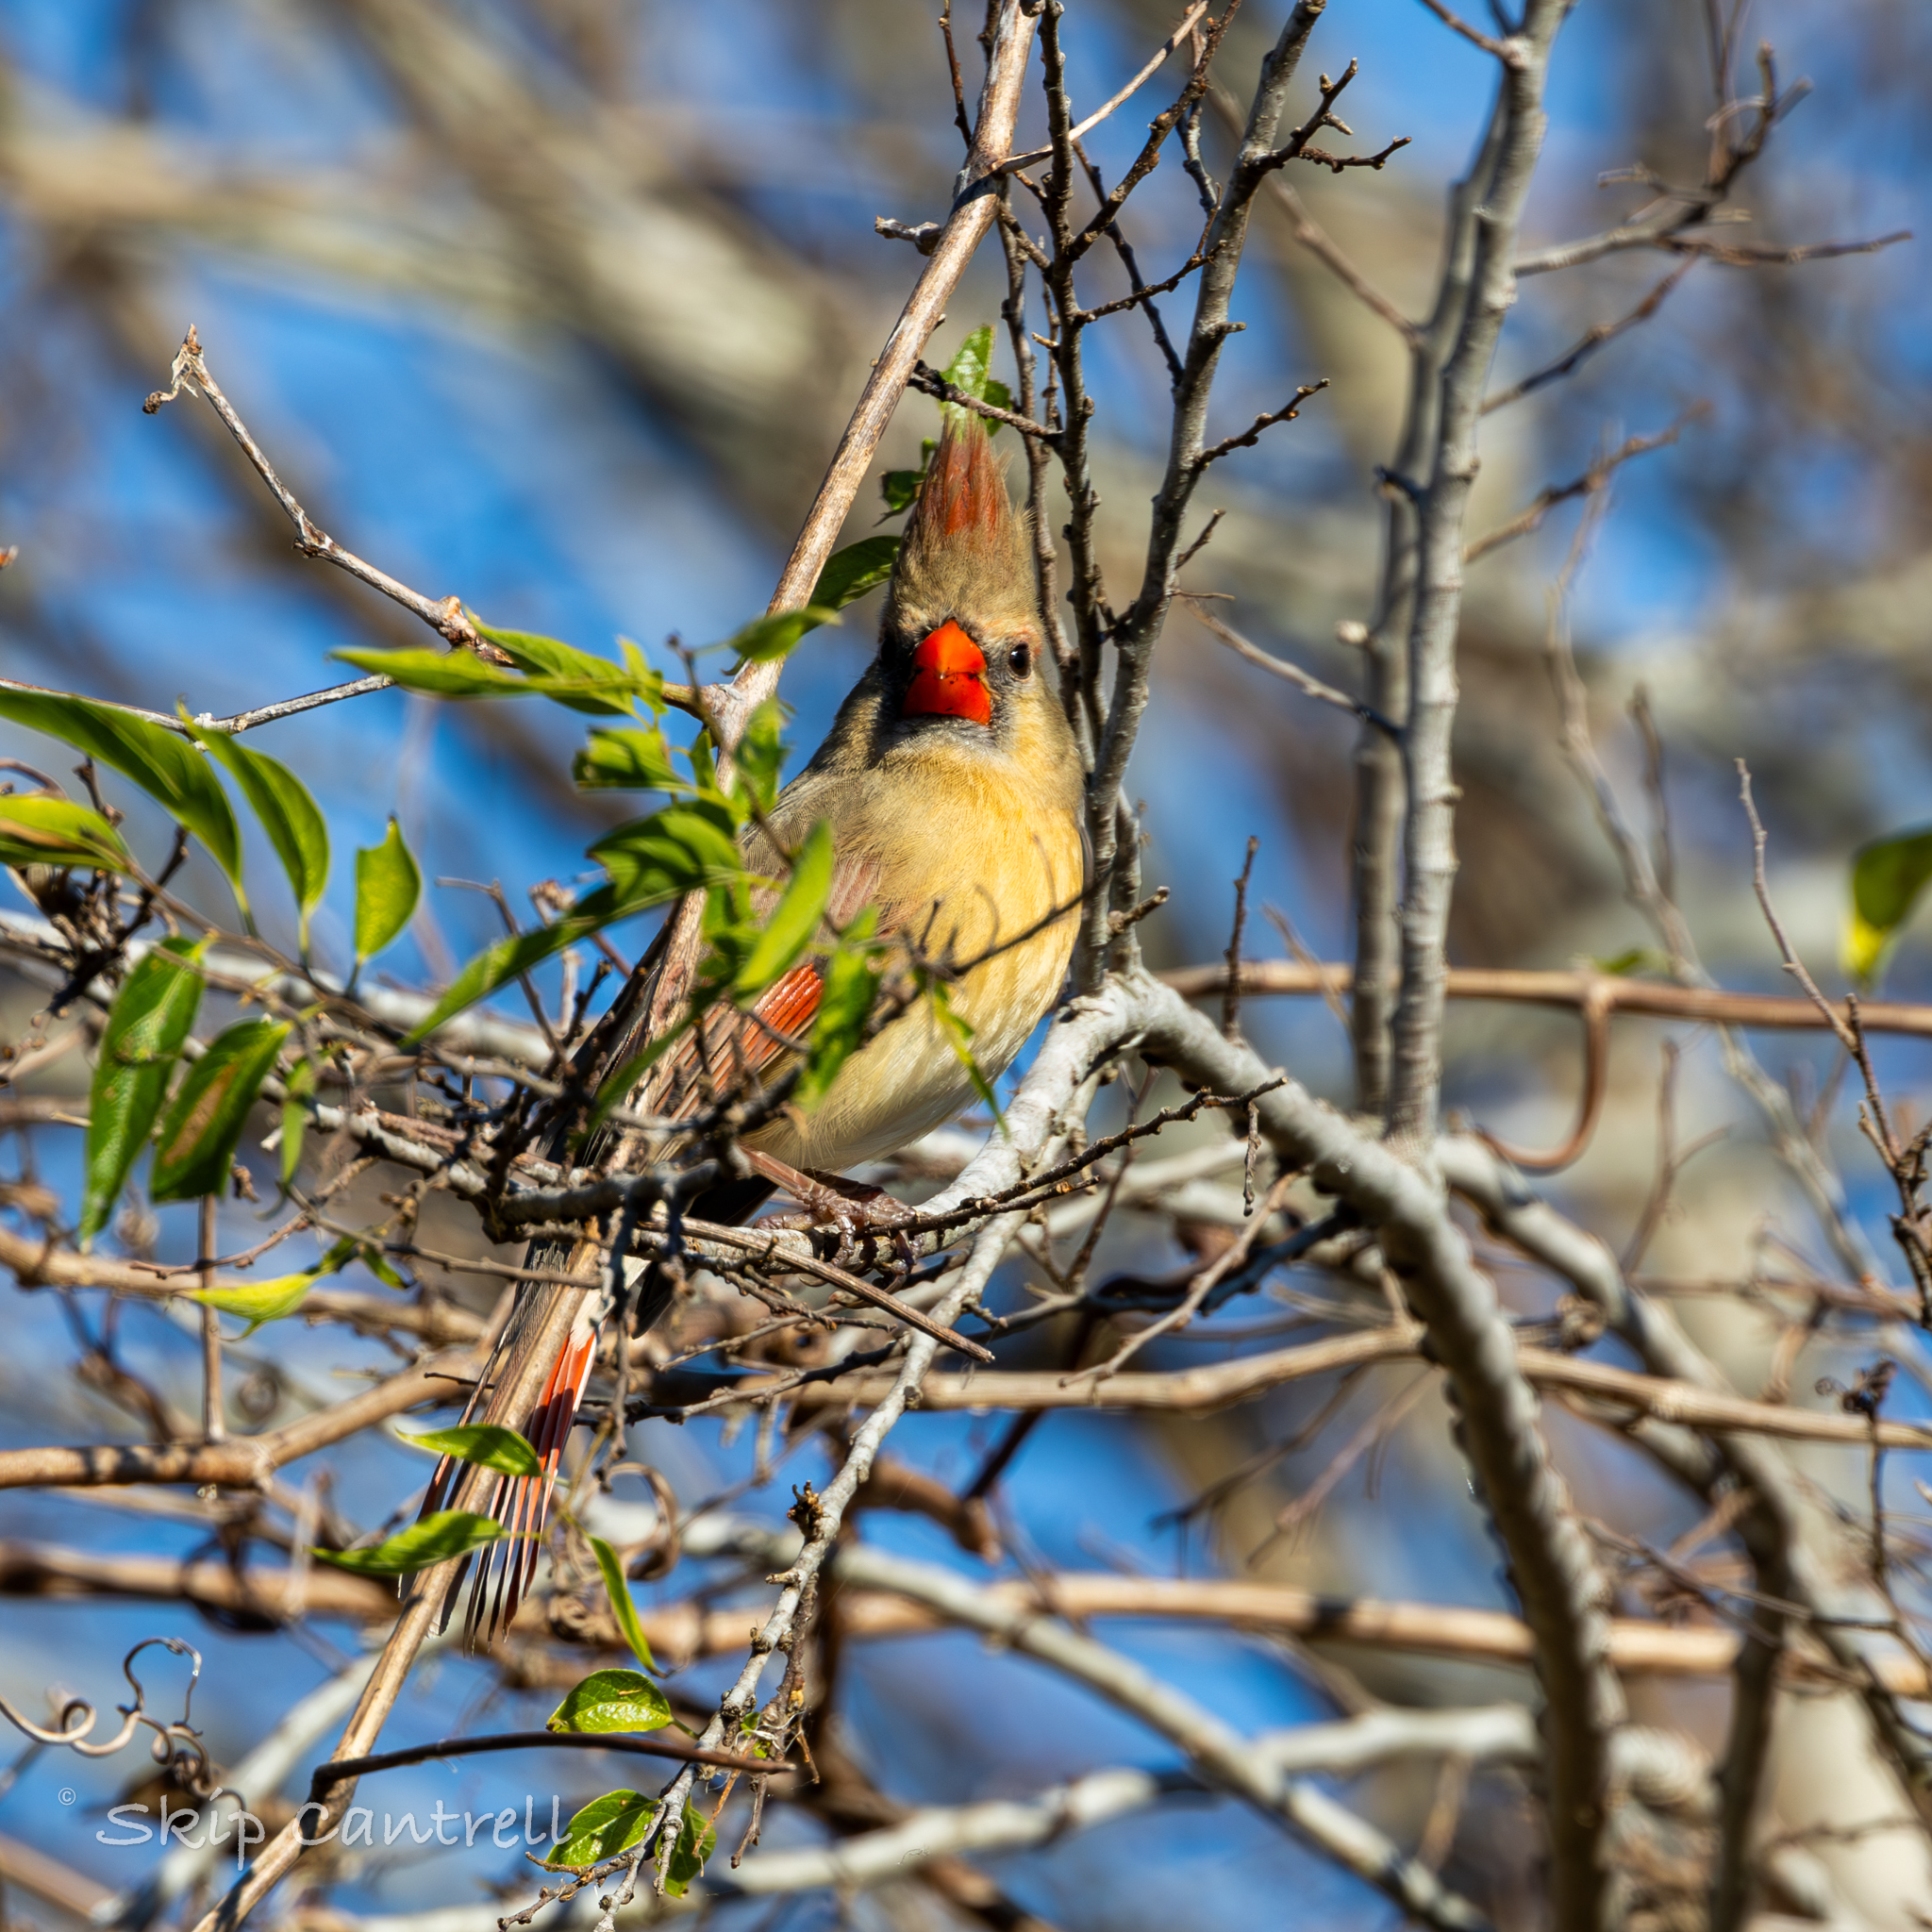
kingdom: Animalia
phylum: Chordata
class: Aves
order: Passeriformes
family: Cardinalidae
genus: Cardinalis
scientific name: Cardinalis cardinalis
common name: Northern cardinal
